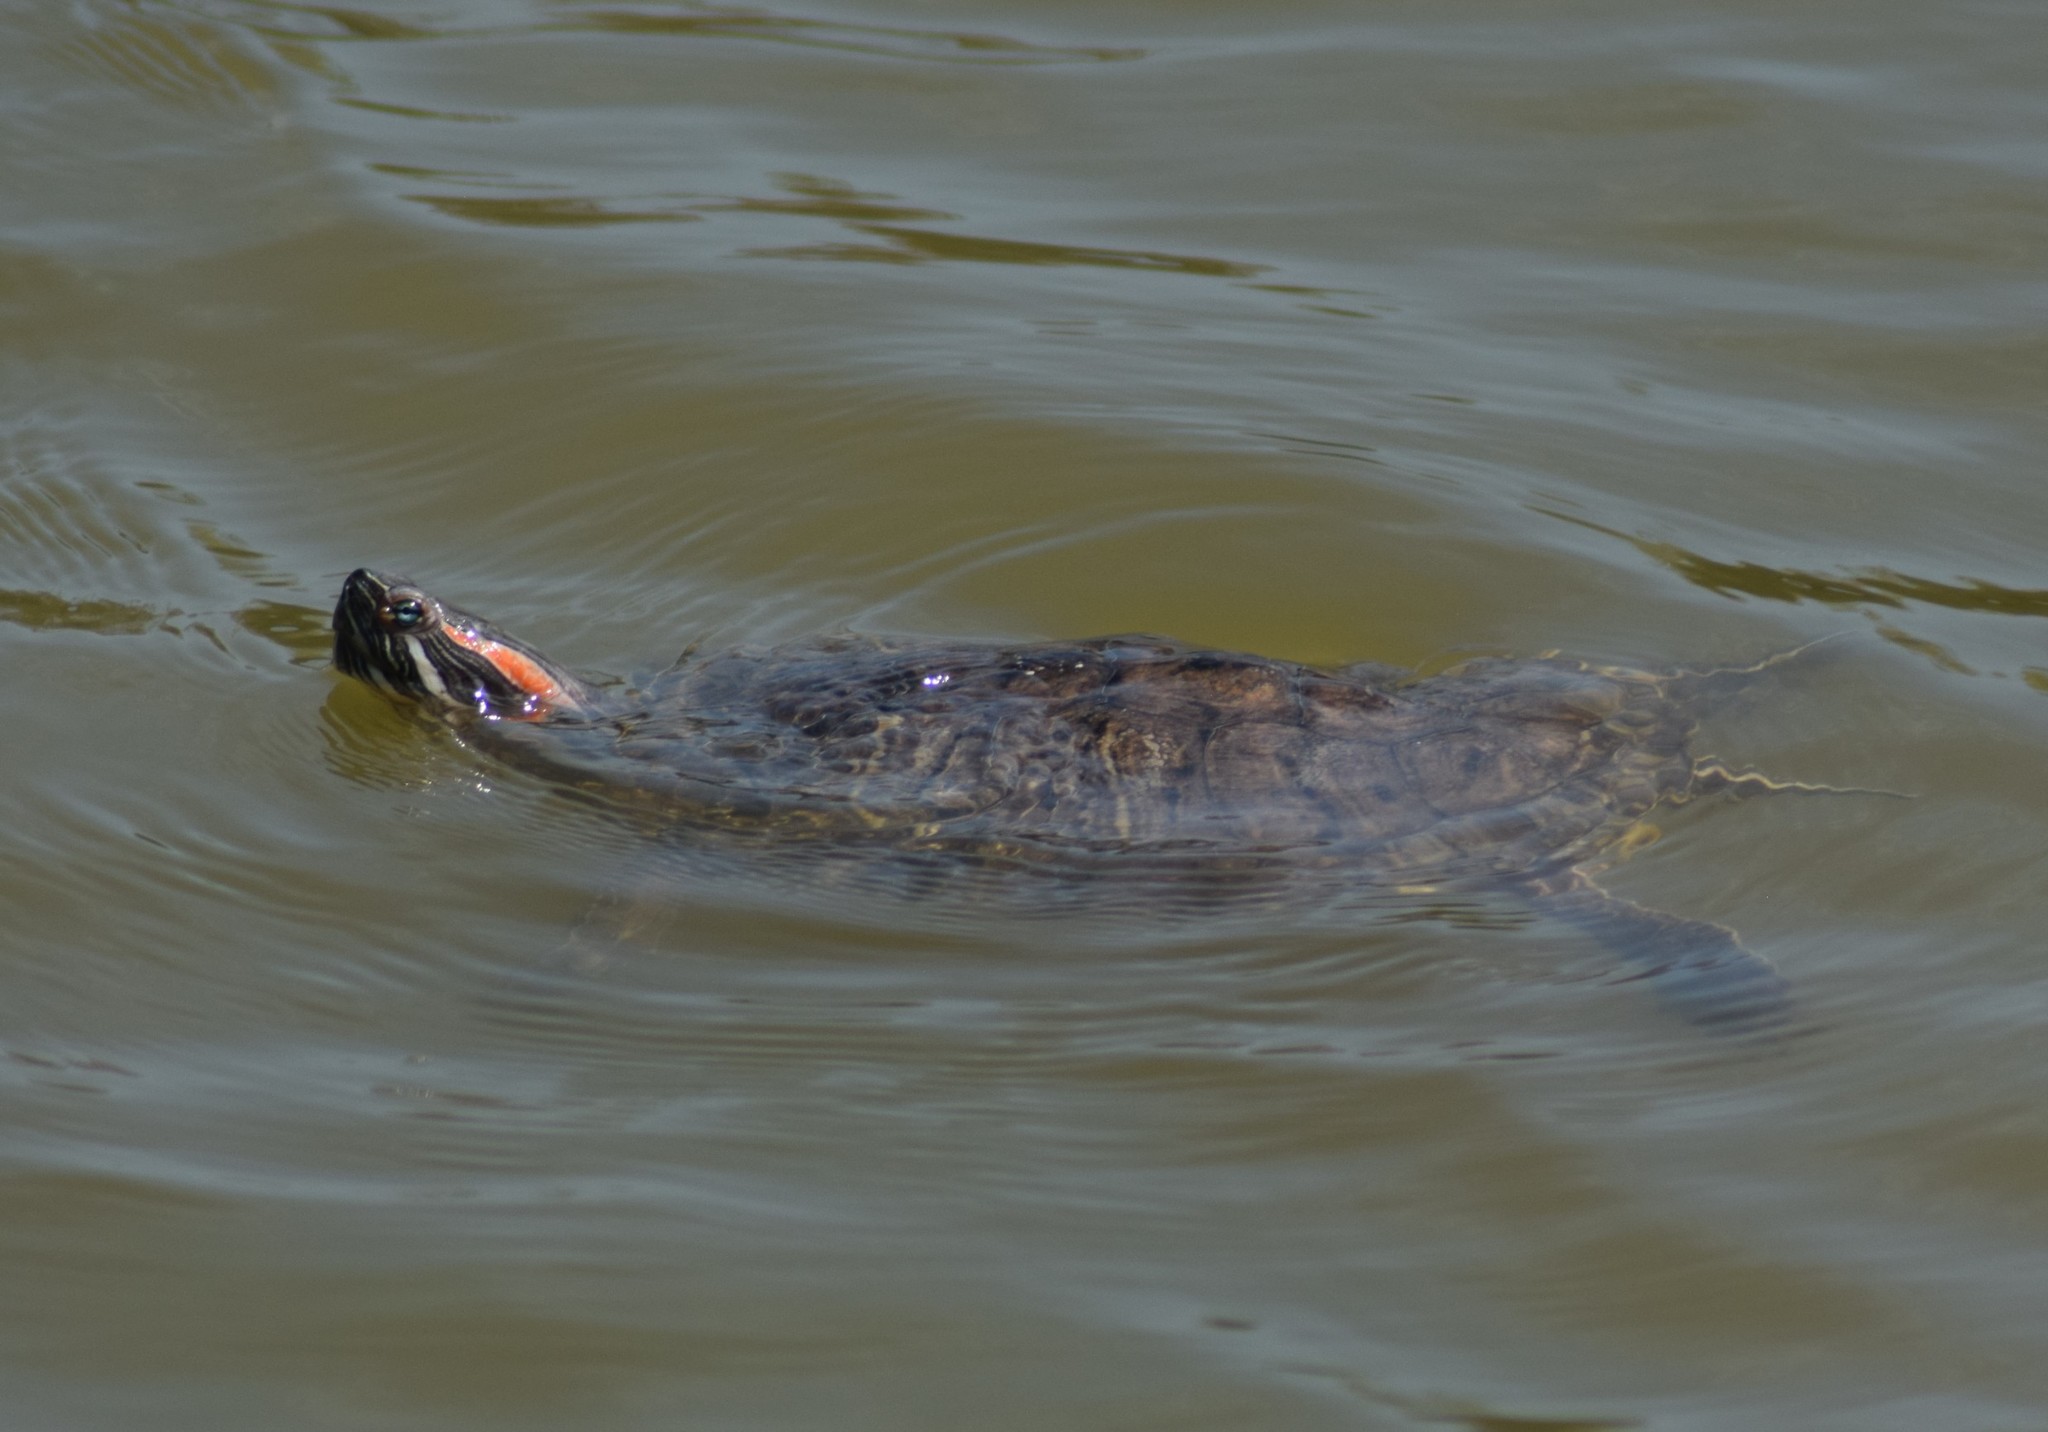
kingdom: Animalia
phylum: Chordata
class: Testudines
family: Emydidae
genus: Trachemys
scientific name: Trachemys scripta
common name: Slider
